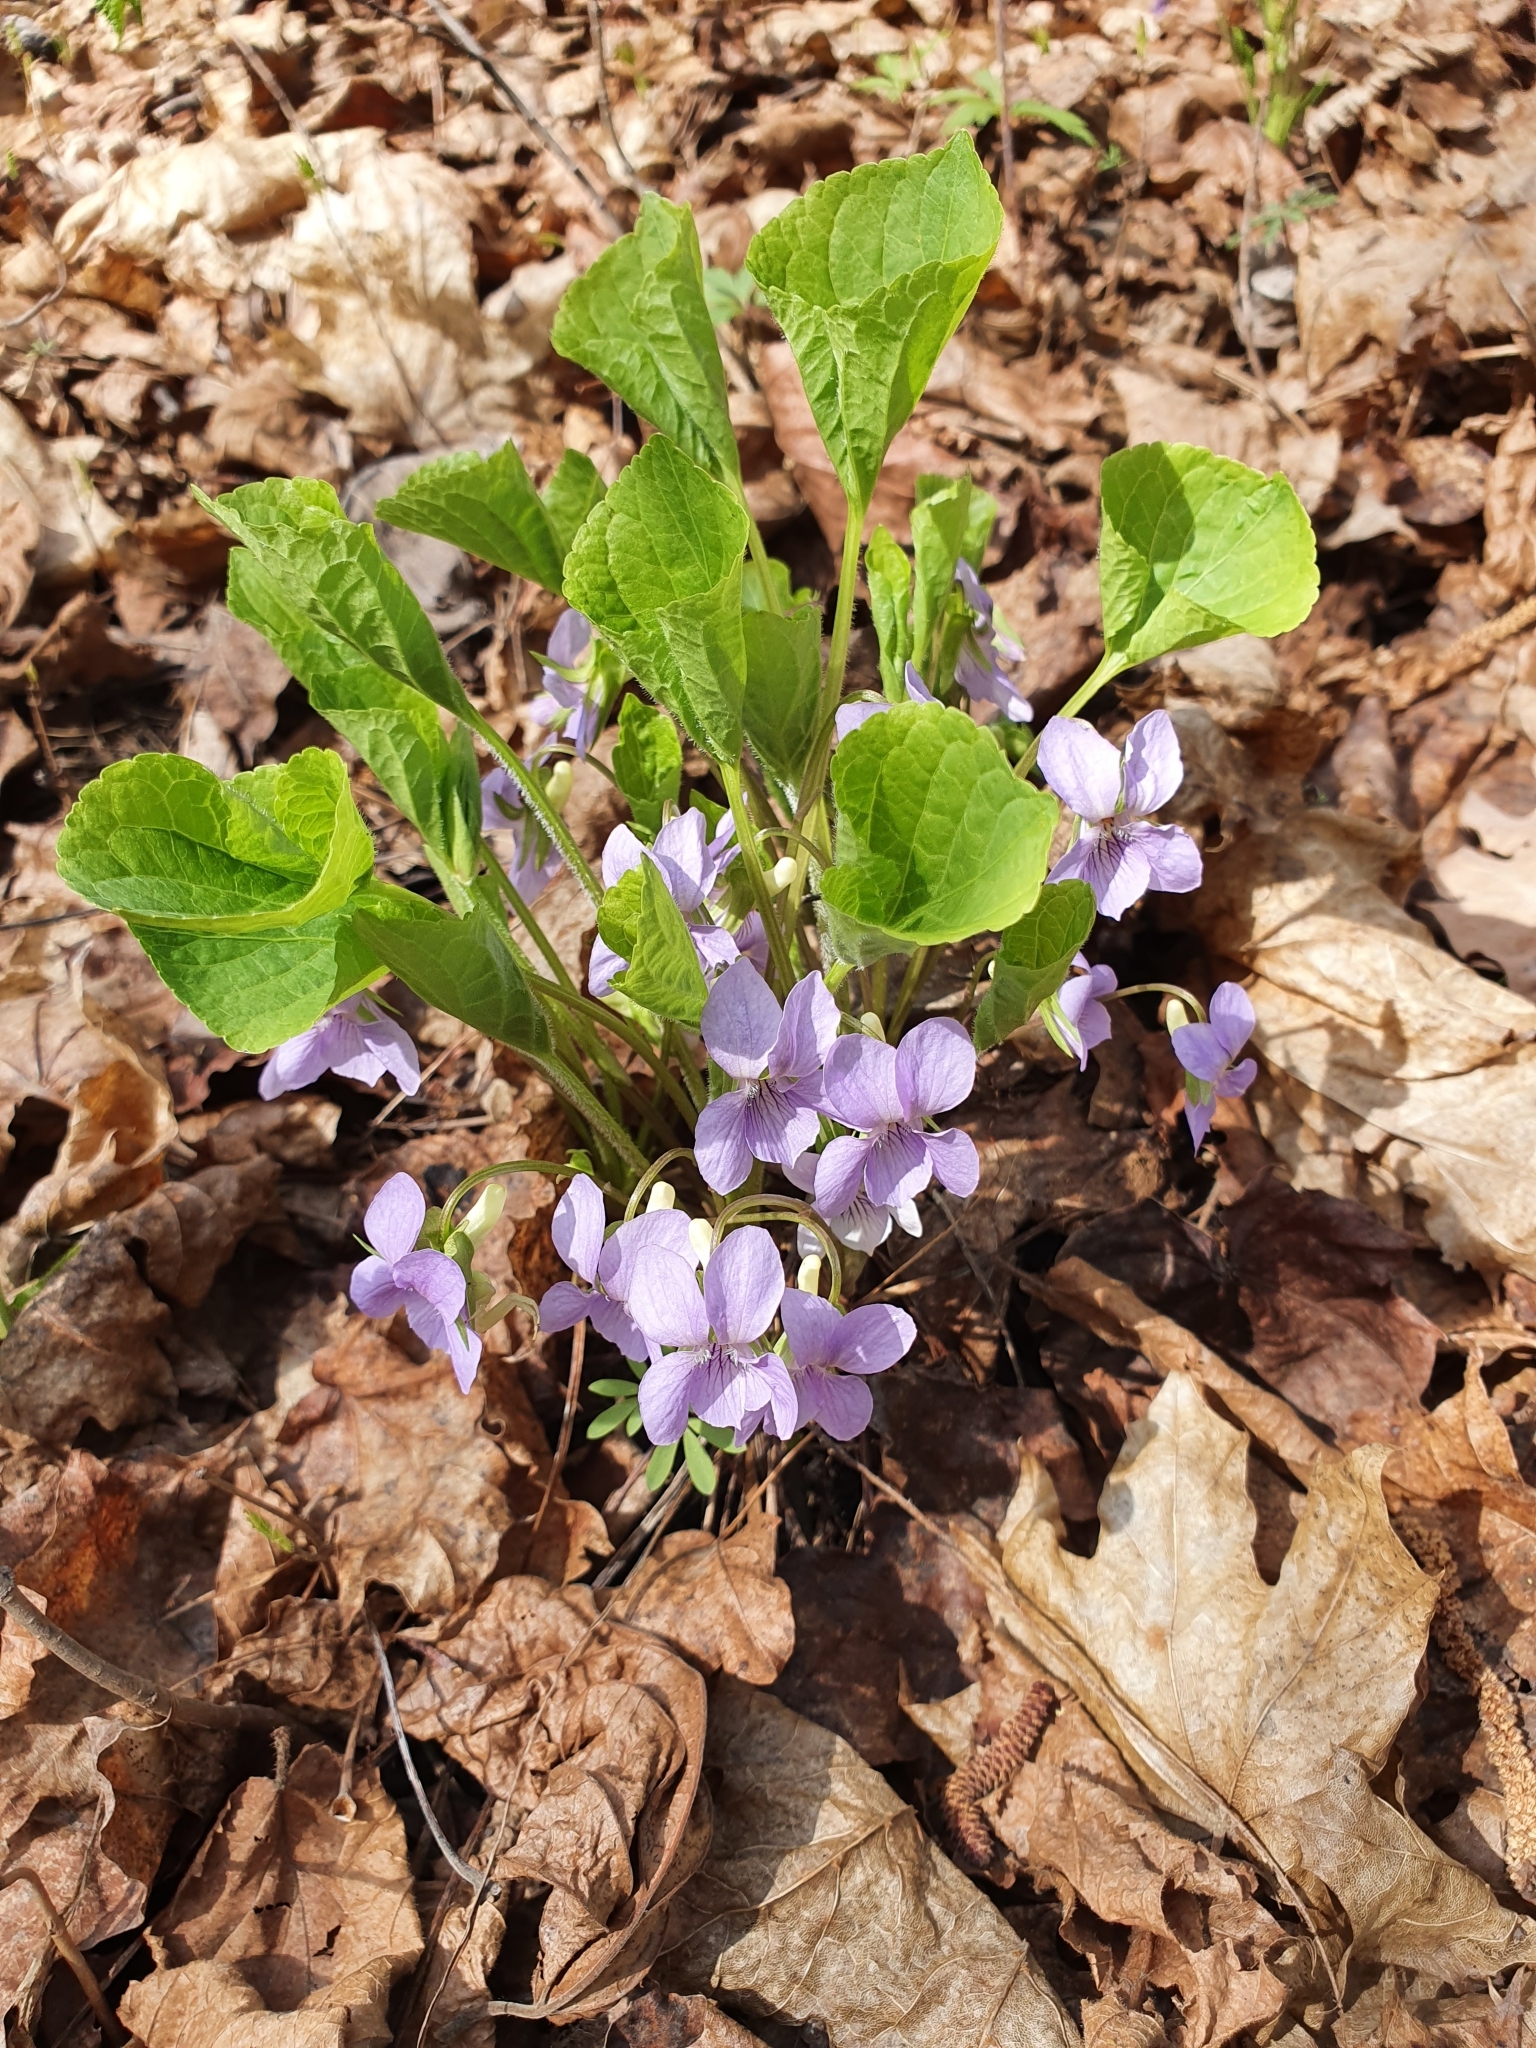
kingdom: Plantae
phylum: Tracheophyta
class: Magnoliopsida
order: Malpighiales
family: Violaceae
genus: Viola
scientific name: Viola mirabilis
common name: Wonder violet
